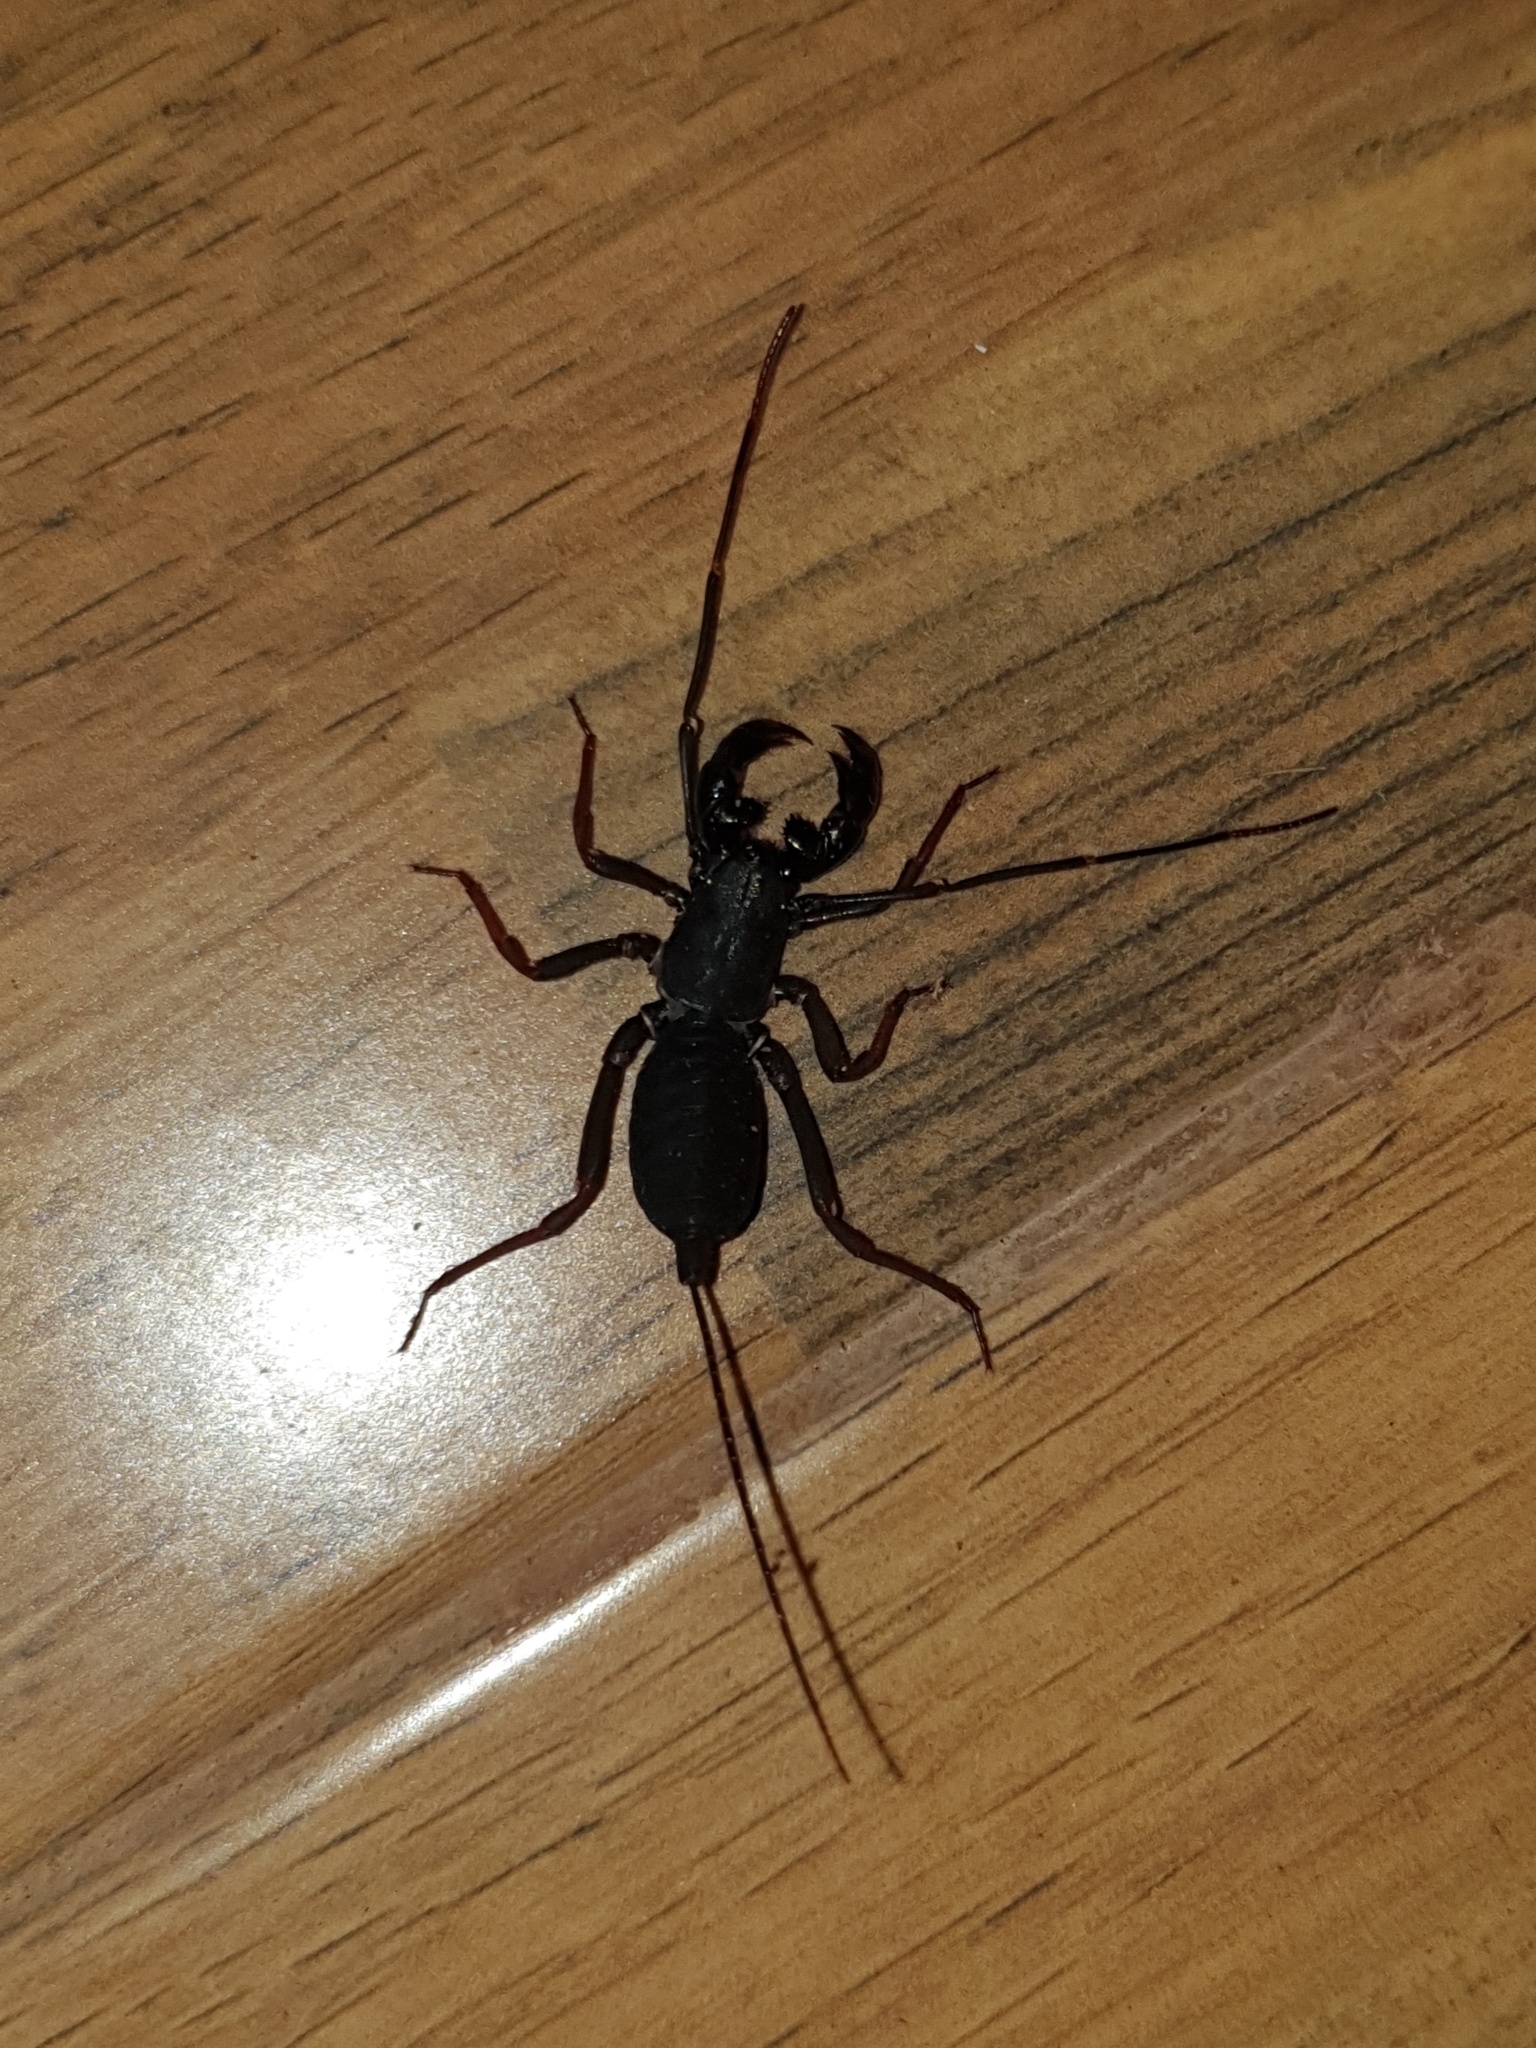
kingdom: Animalia
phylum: Arthropoda
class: Arachnida
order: Uropygi
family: Thelyphonidae
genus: Thelyphonus
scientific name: Thelyphonus sepiaris
